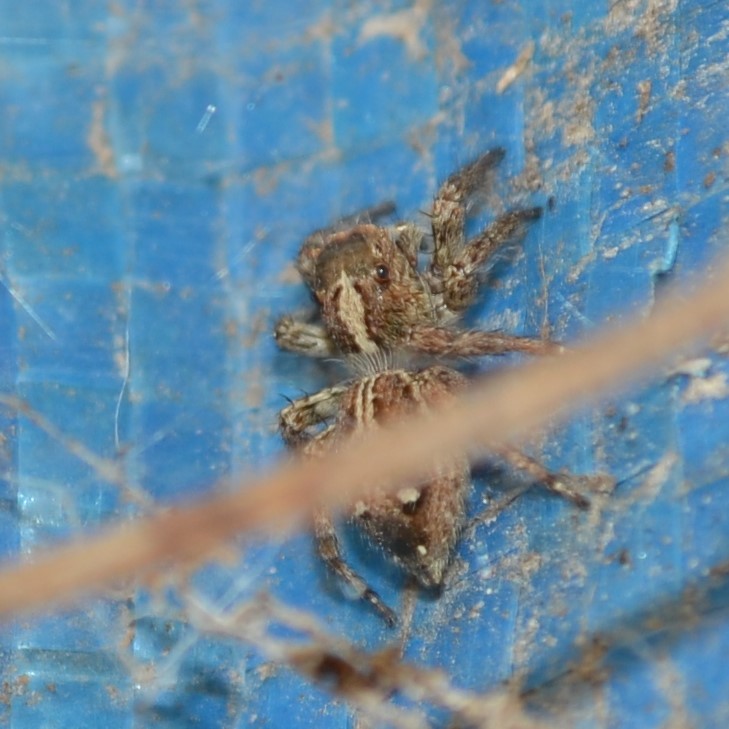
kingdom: Animalia
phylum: Arthropoda
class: Arachnida
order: Araneae
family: Salticidae
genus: Plexippus
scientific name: Plexippus paykulli
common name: Pantropical jumper
